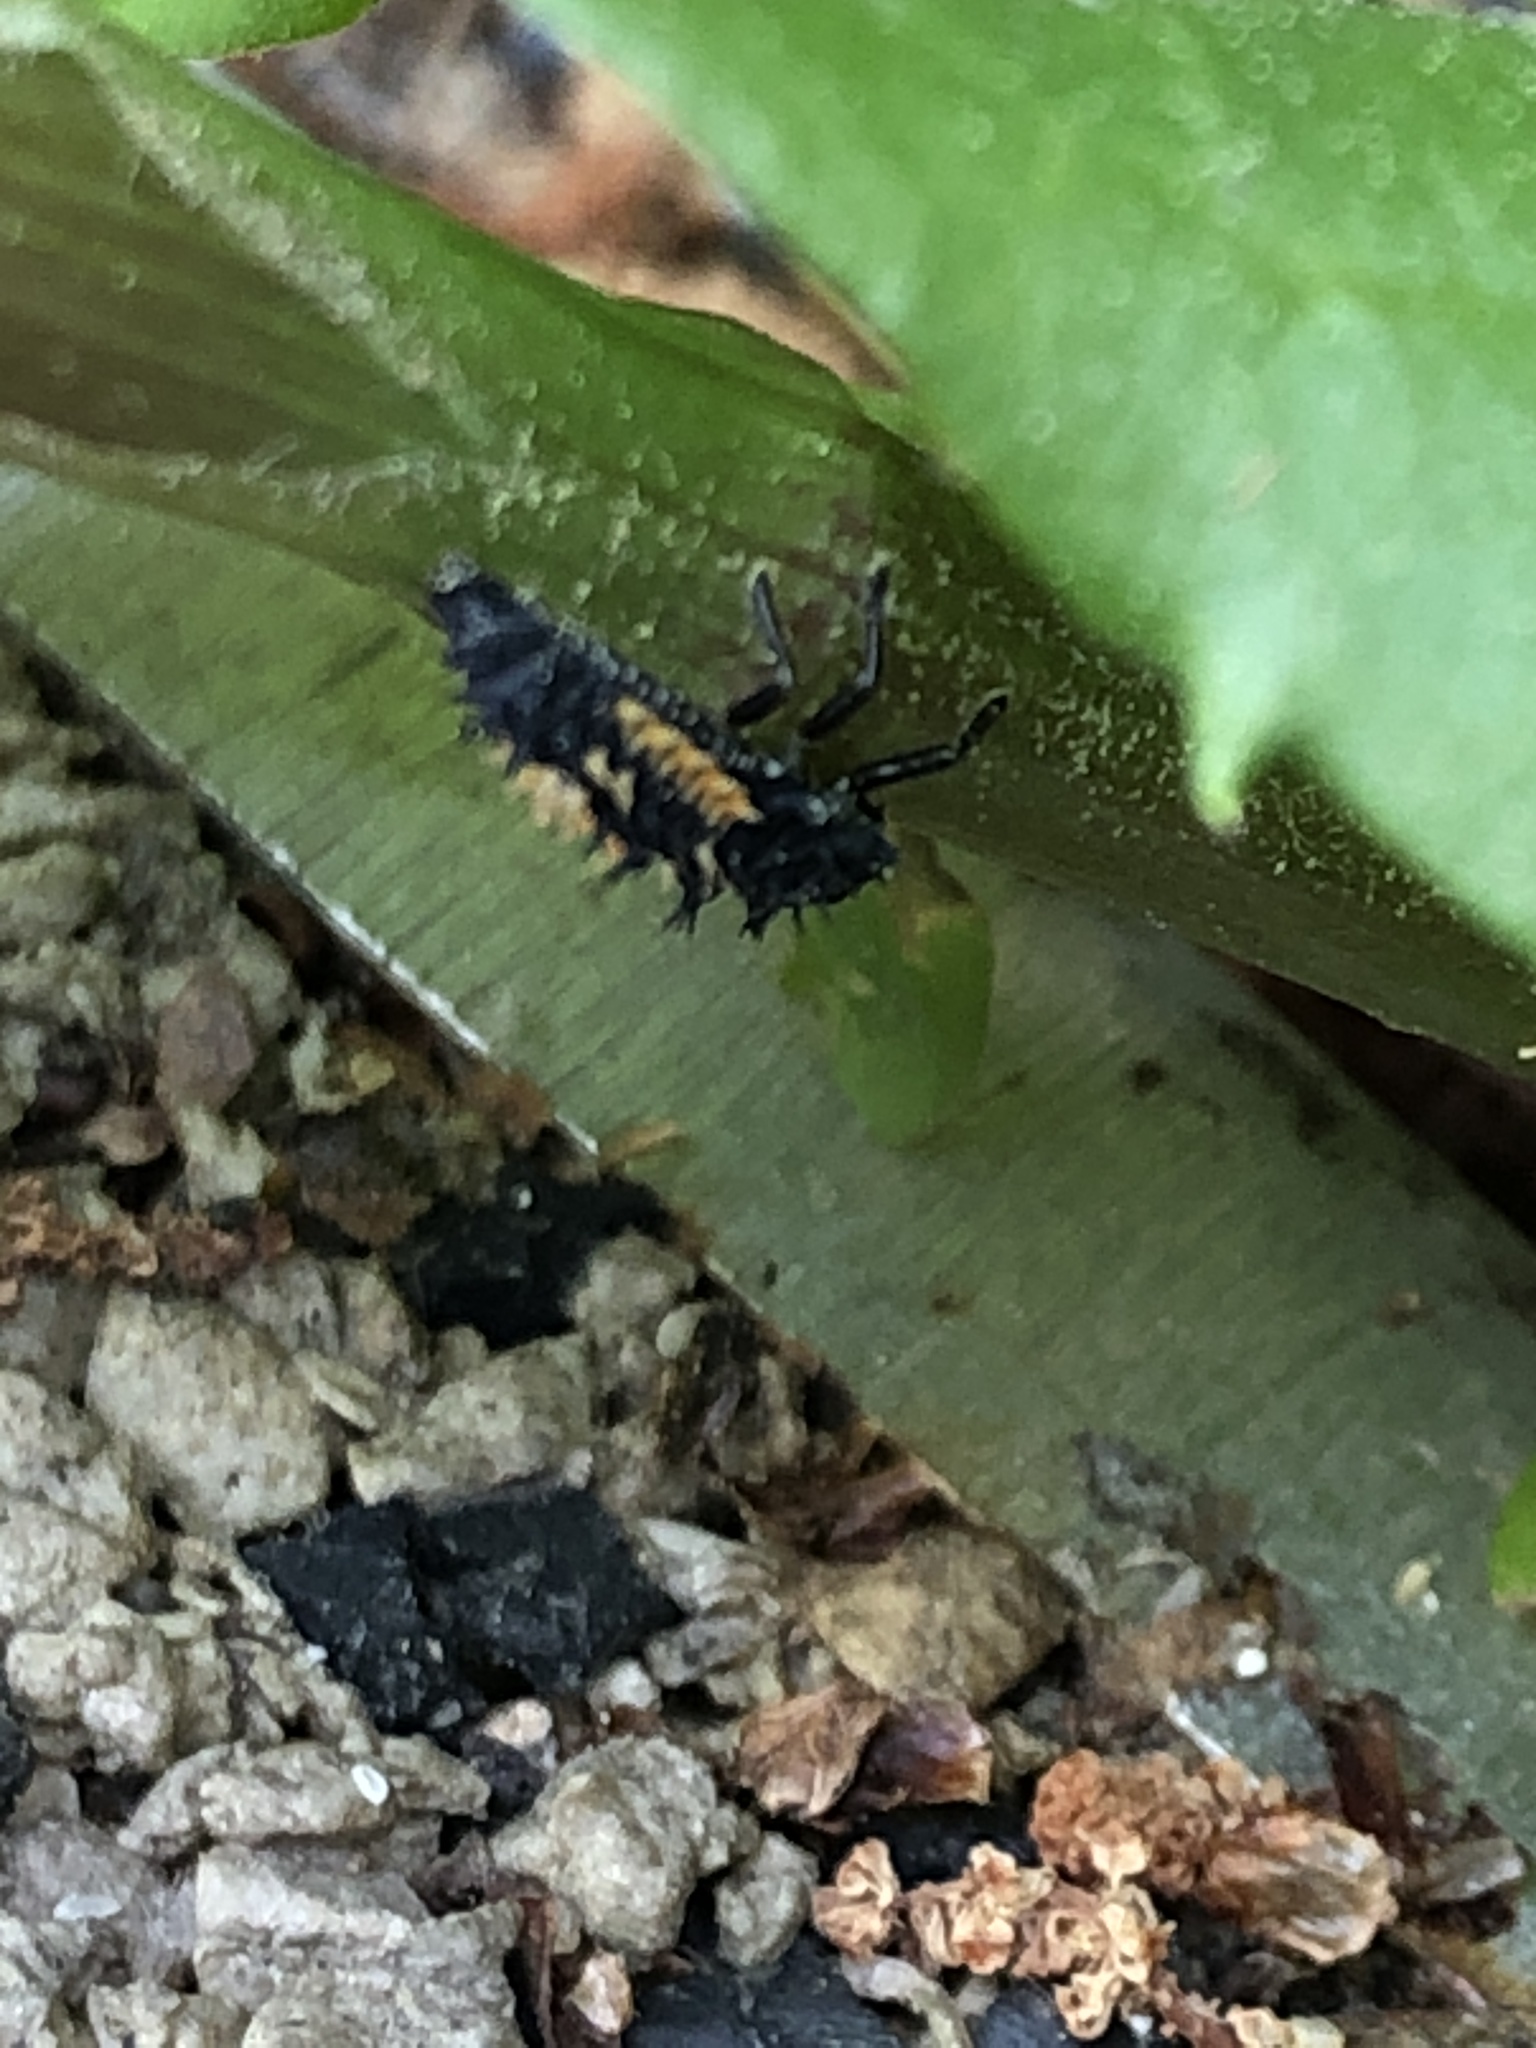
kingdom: Animalia
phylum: Arthropoda
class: Insecta
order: Coleoptera
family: Coccinellidae
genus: Harmonia
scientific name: Harmonia axyridis
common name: Harlequin ladybird
